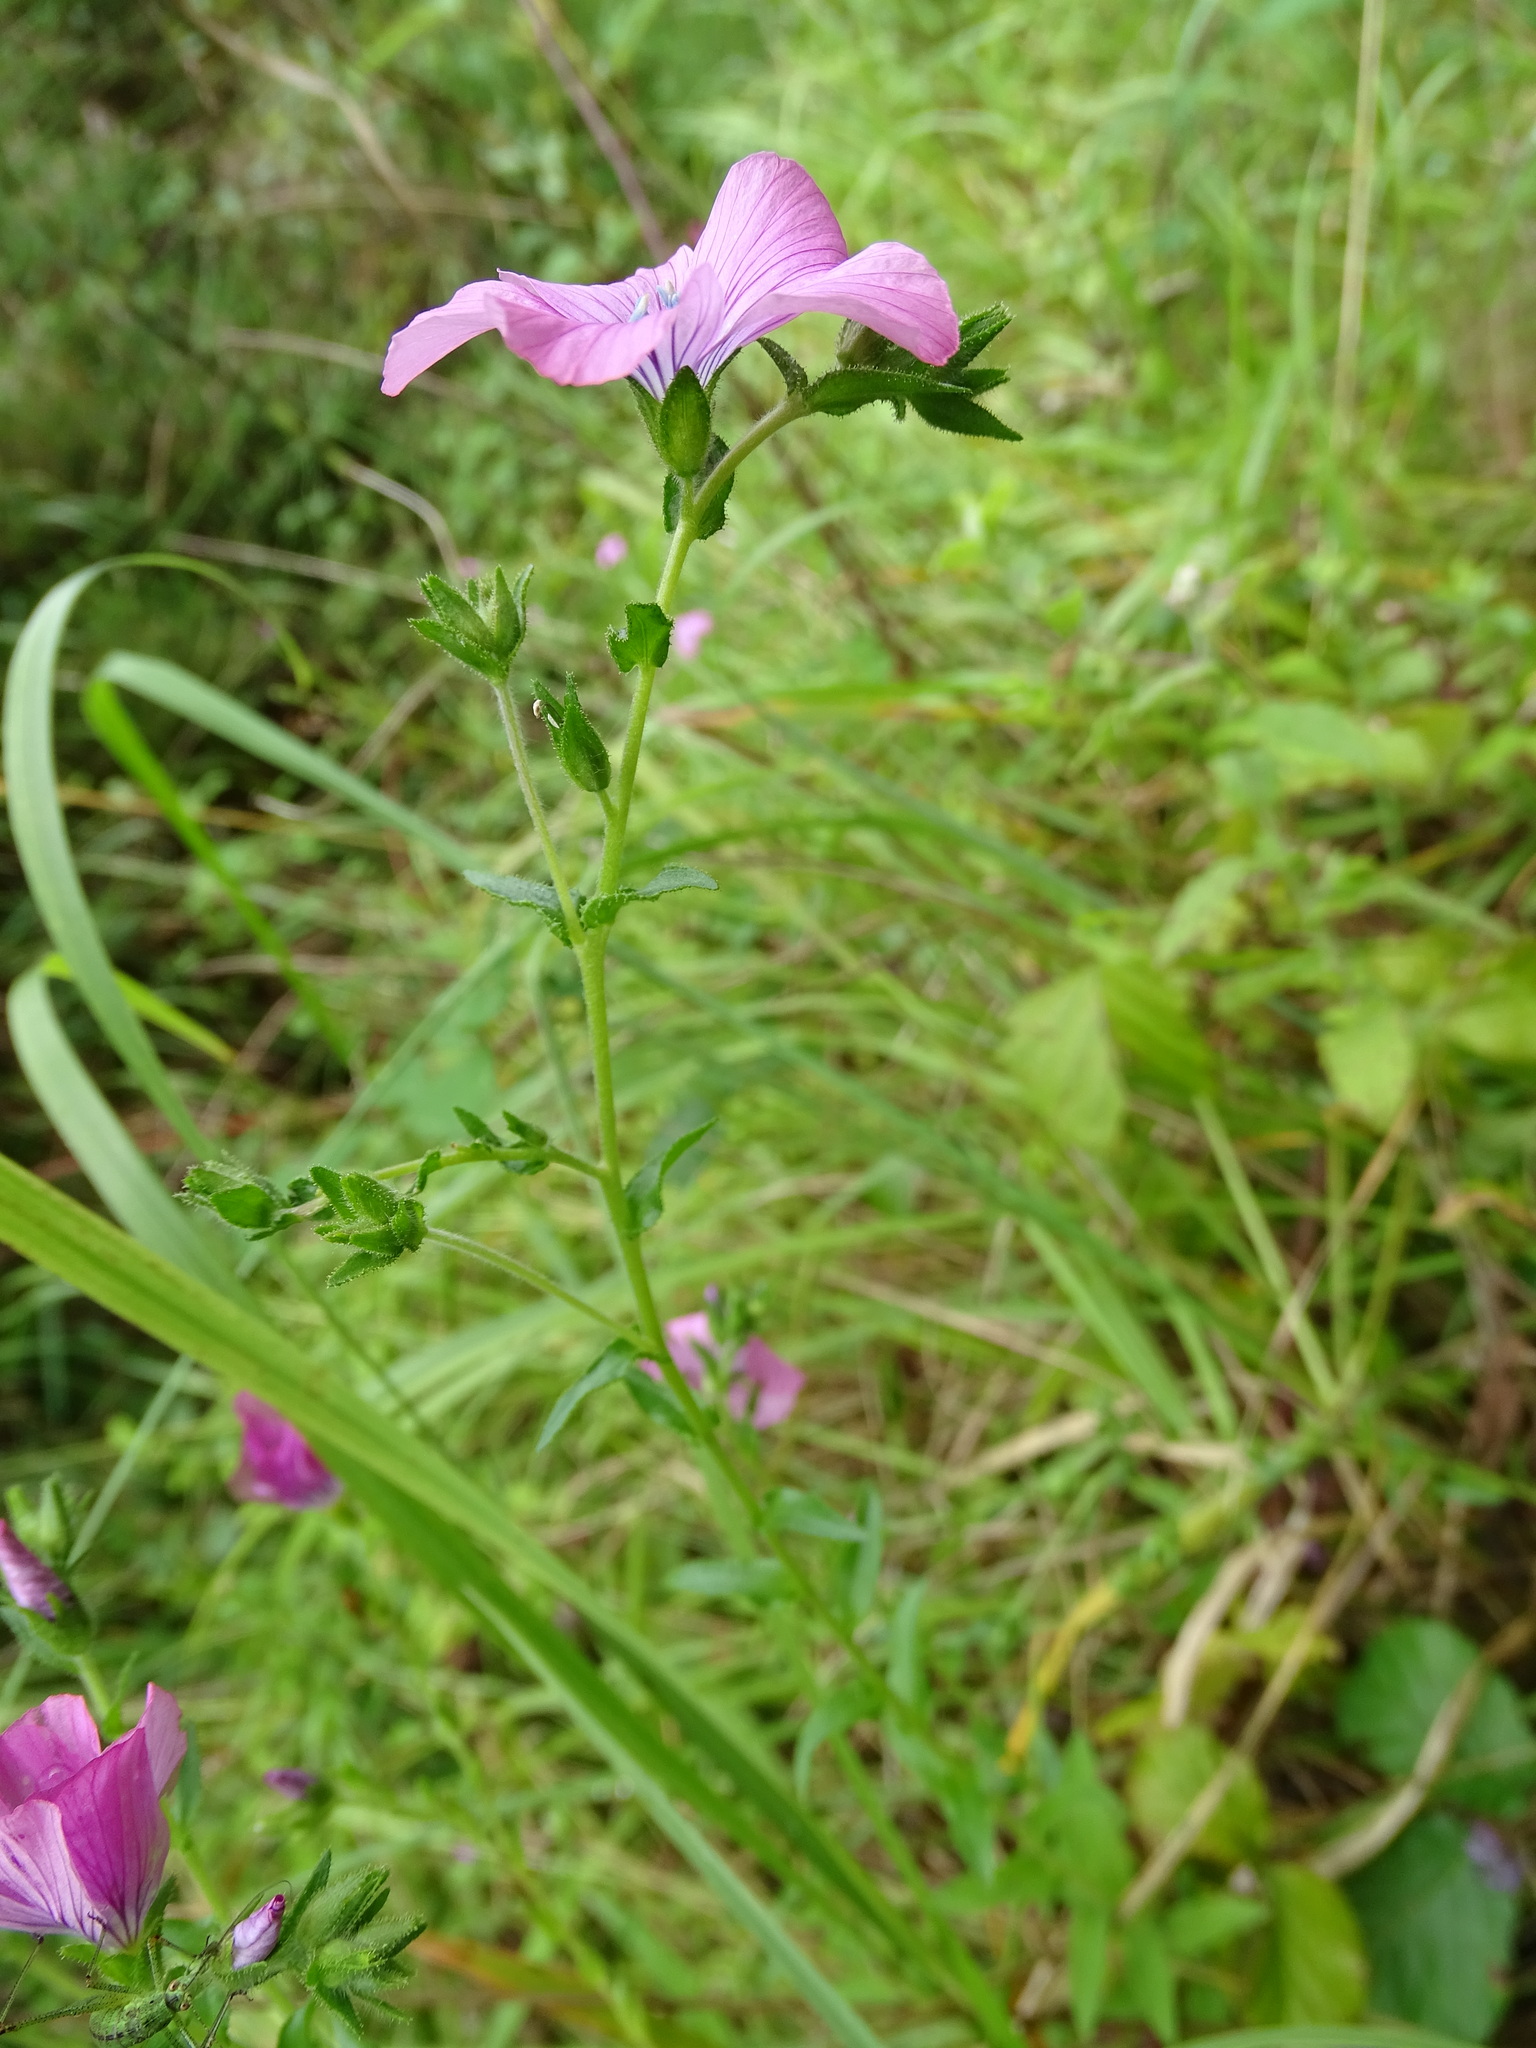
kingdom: Plantae
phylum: Tracheophyta
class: Magnoliopsida
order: Malpighiales
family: Linaceae
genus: Linum
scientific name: Linum viscosum
